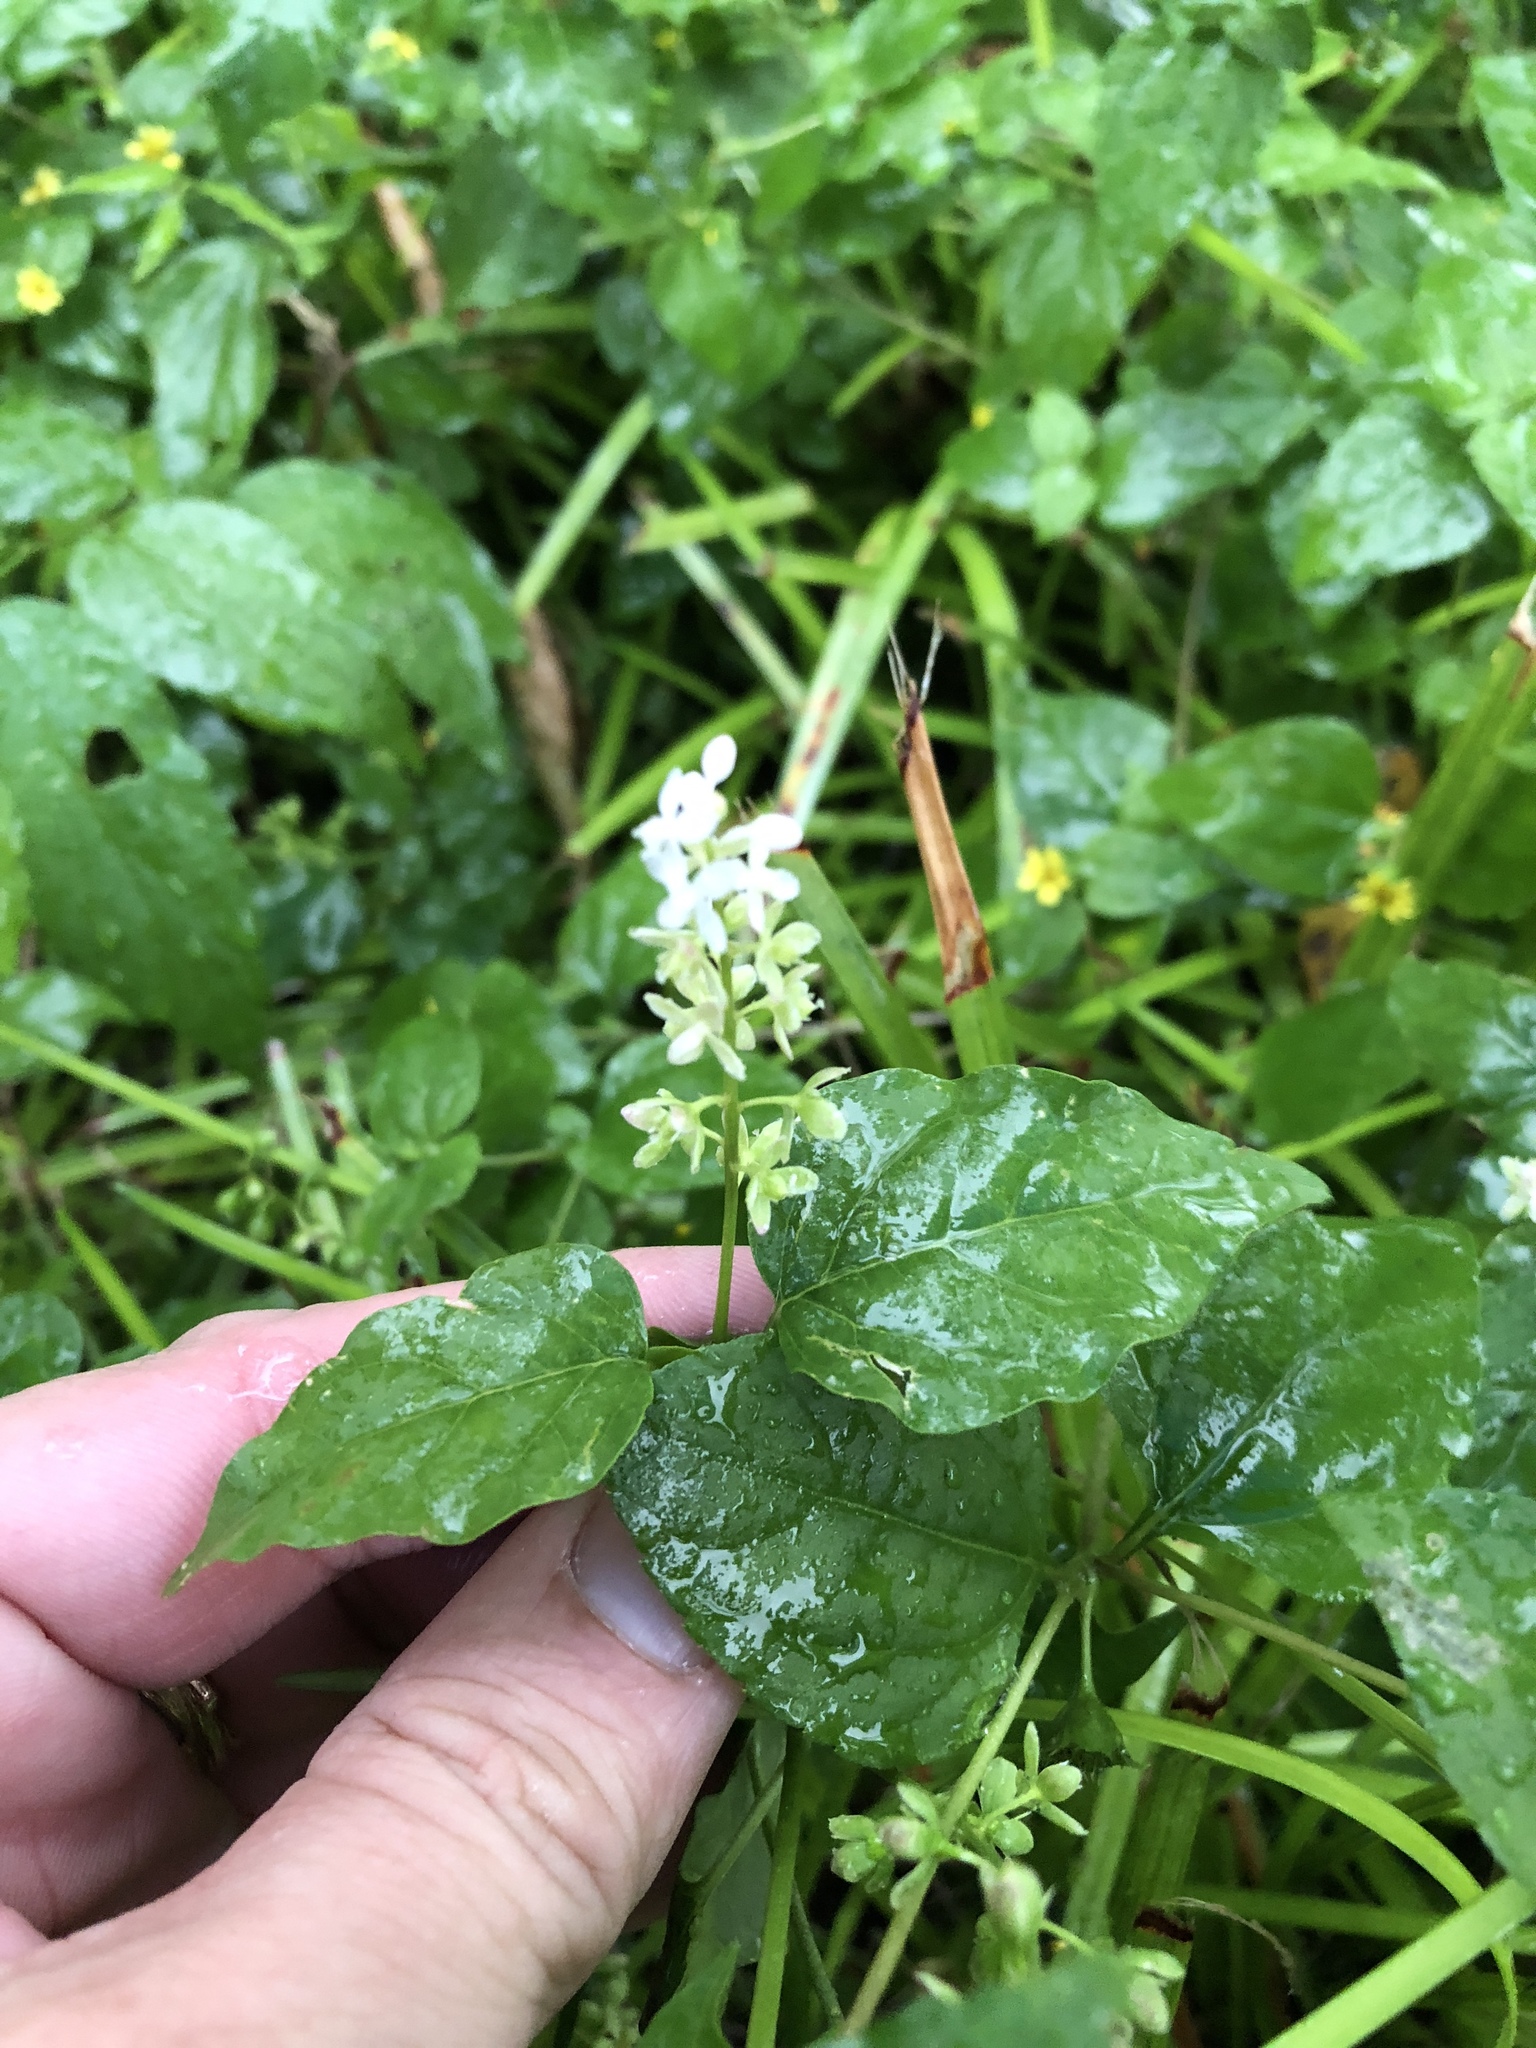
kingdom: Plantae
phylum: Tracheophyta
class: Magnoliopsida
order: Caryophyllales
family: Phytolaccaceae
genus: Rivina
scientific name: Rivina humilis
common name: Rougeplant
